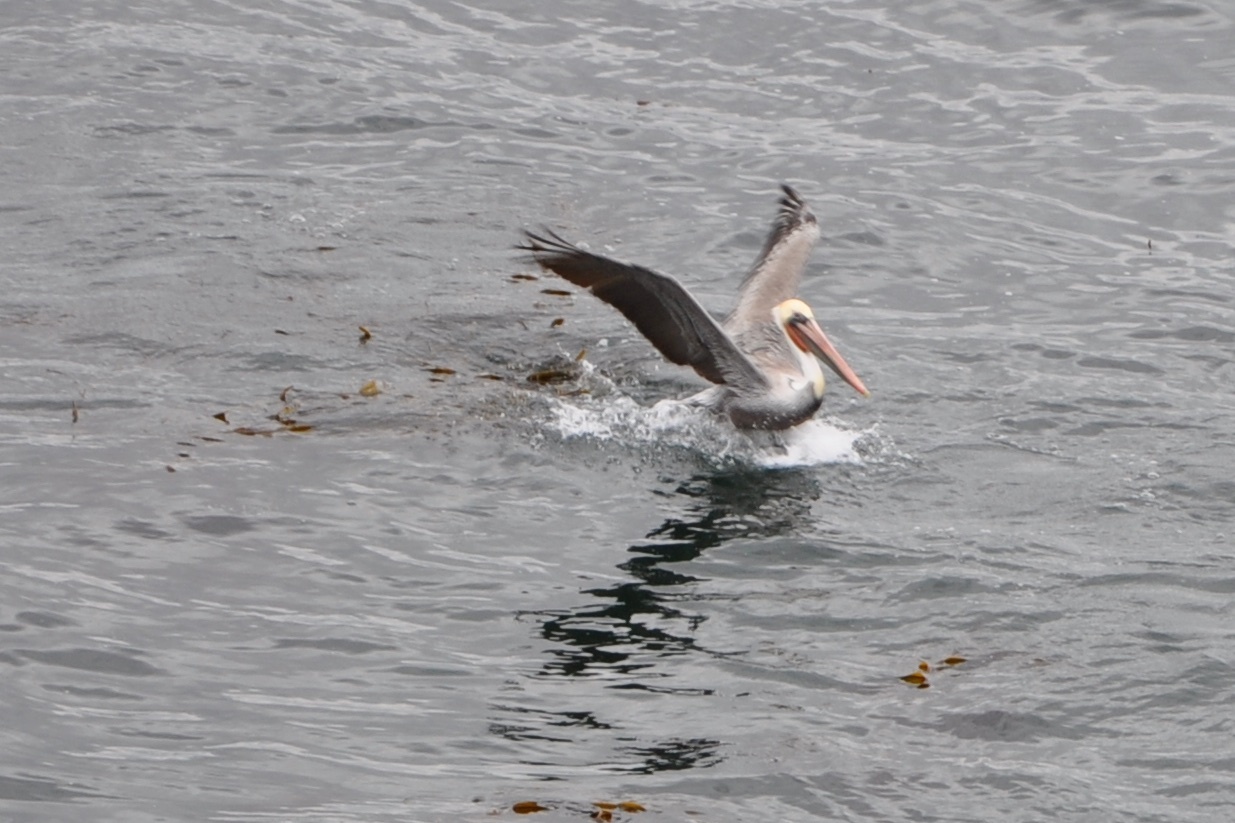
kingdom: Animalia
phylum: Chordata
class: Aves
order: Pelecaniformes
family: Pelecanidae
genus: Pelecanus
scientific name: Pelecanus occidentalis
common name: Brown pelican
